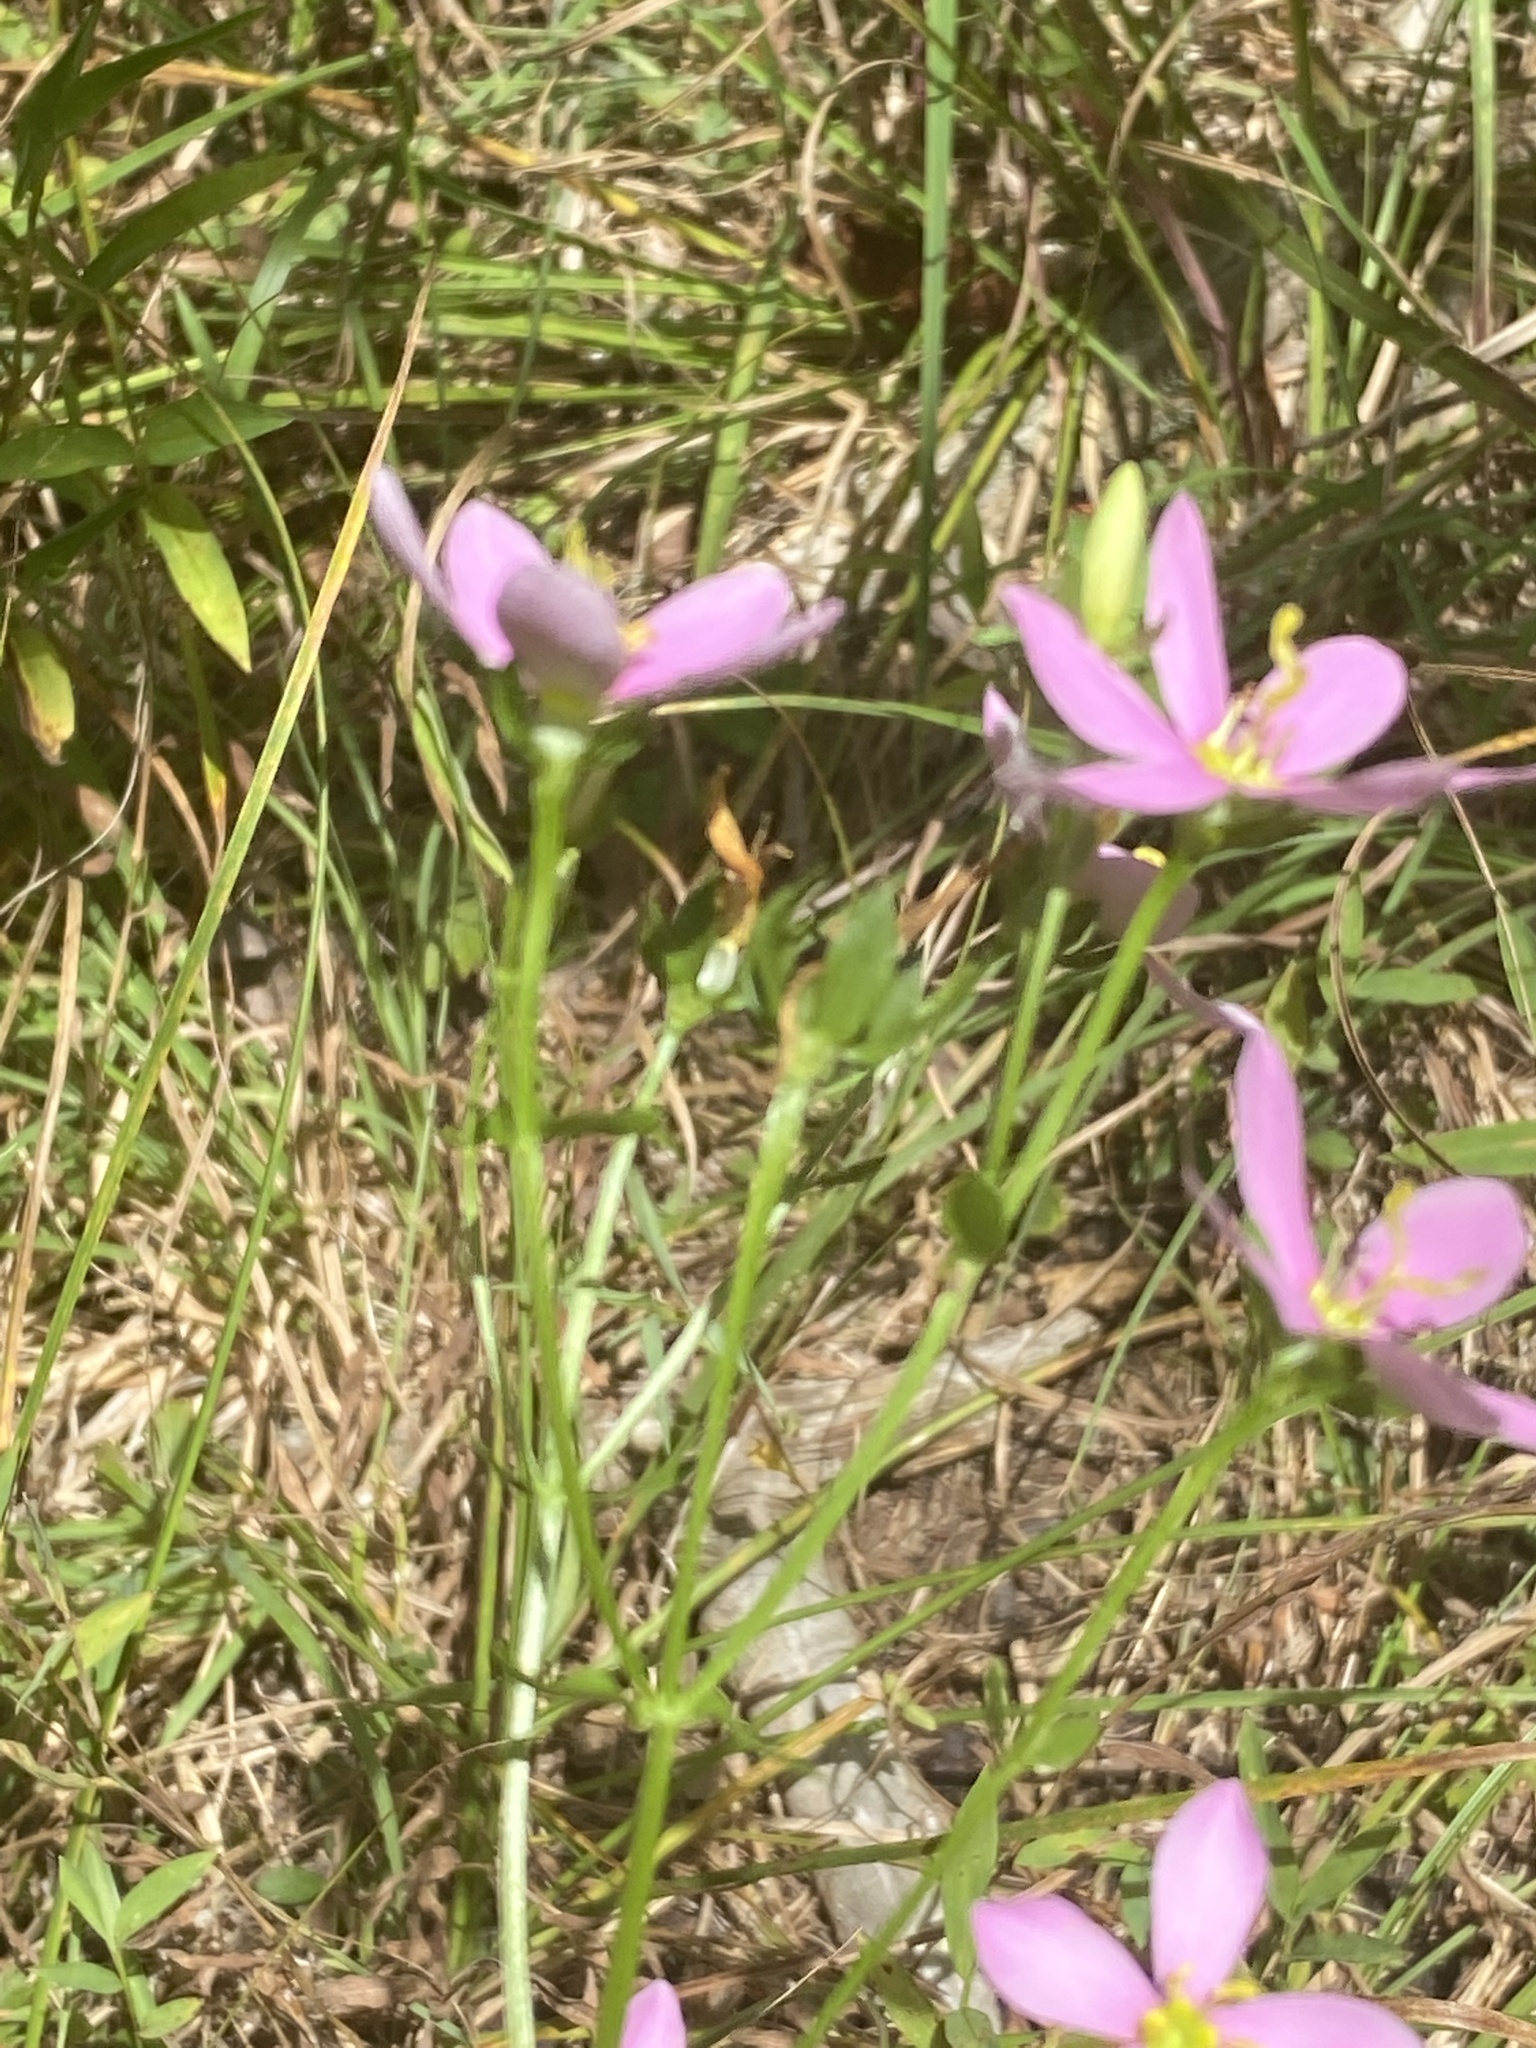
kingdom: Plantae
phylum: Tracheophyta
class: Magnoliopsida
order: Gentianales
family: Gentianaceae
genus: Sabatia
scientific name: Sabatia angularis
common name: Rose-pink
